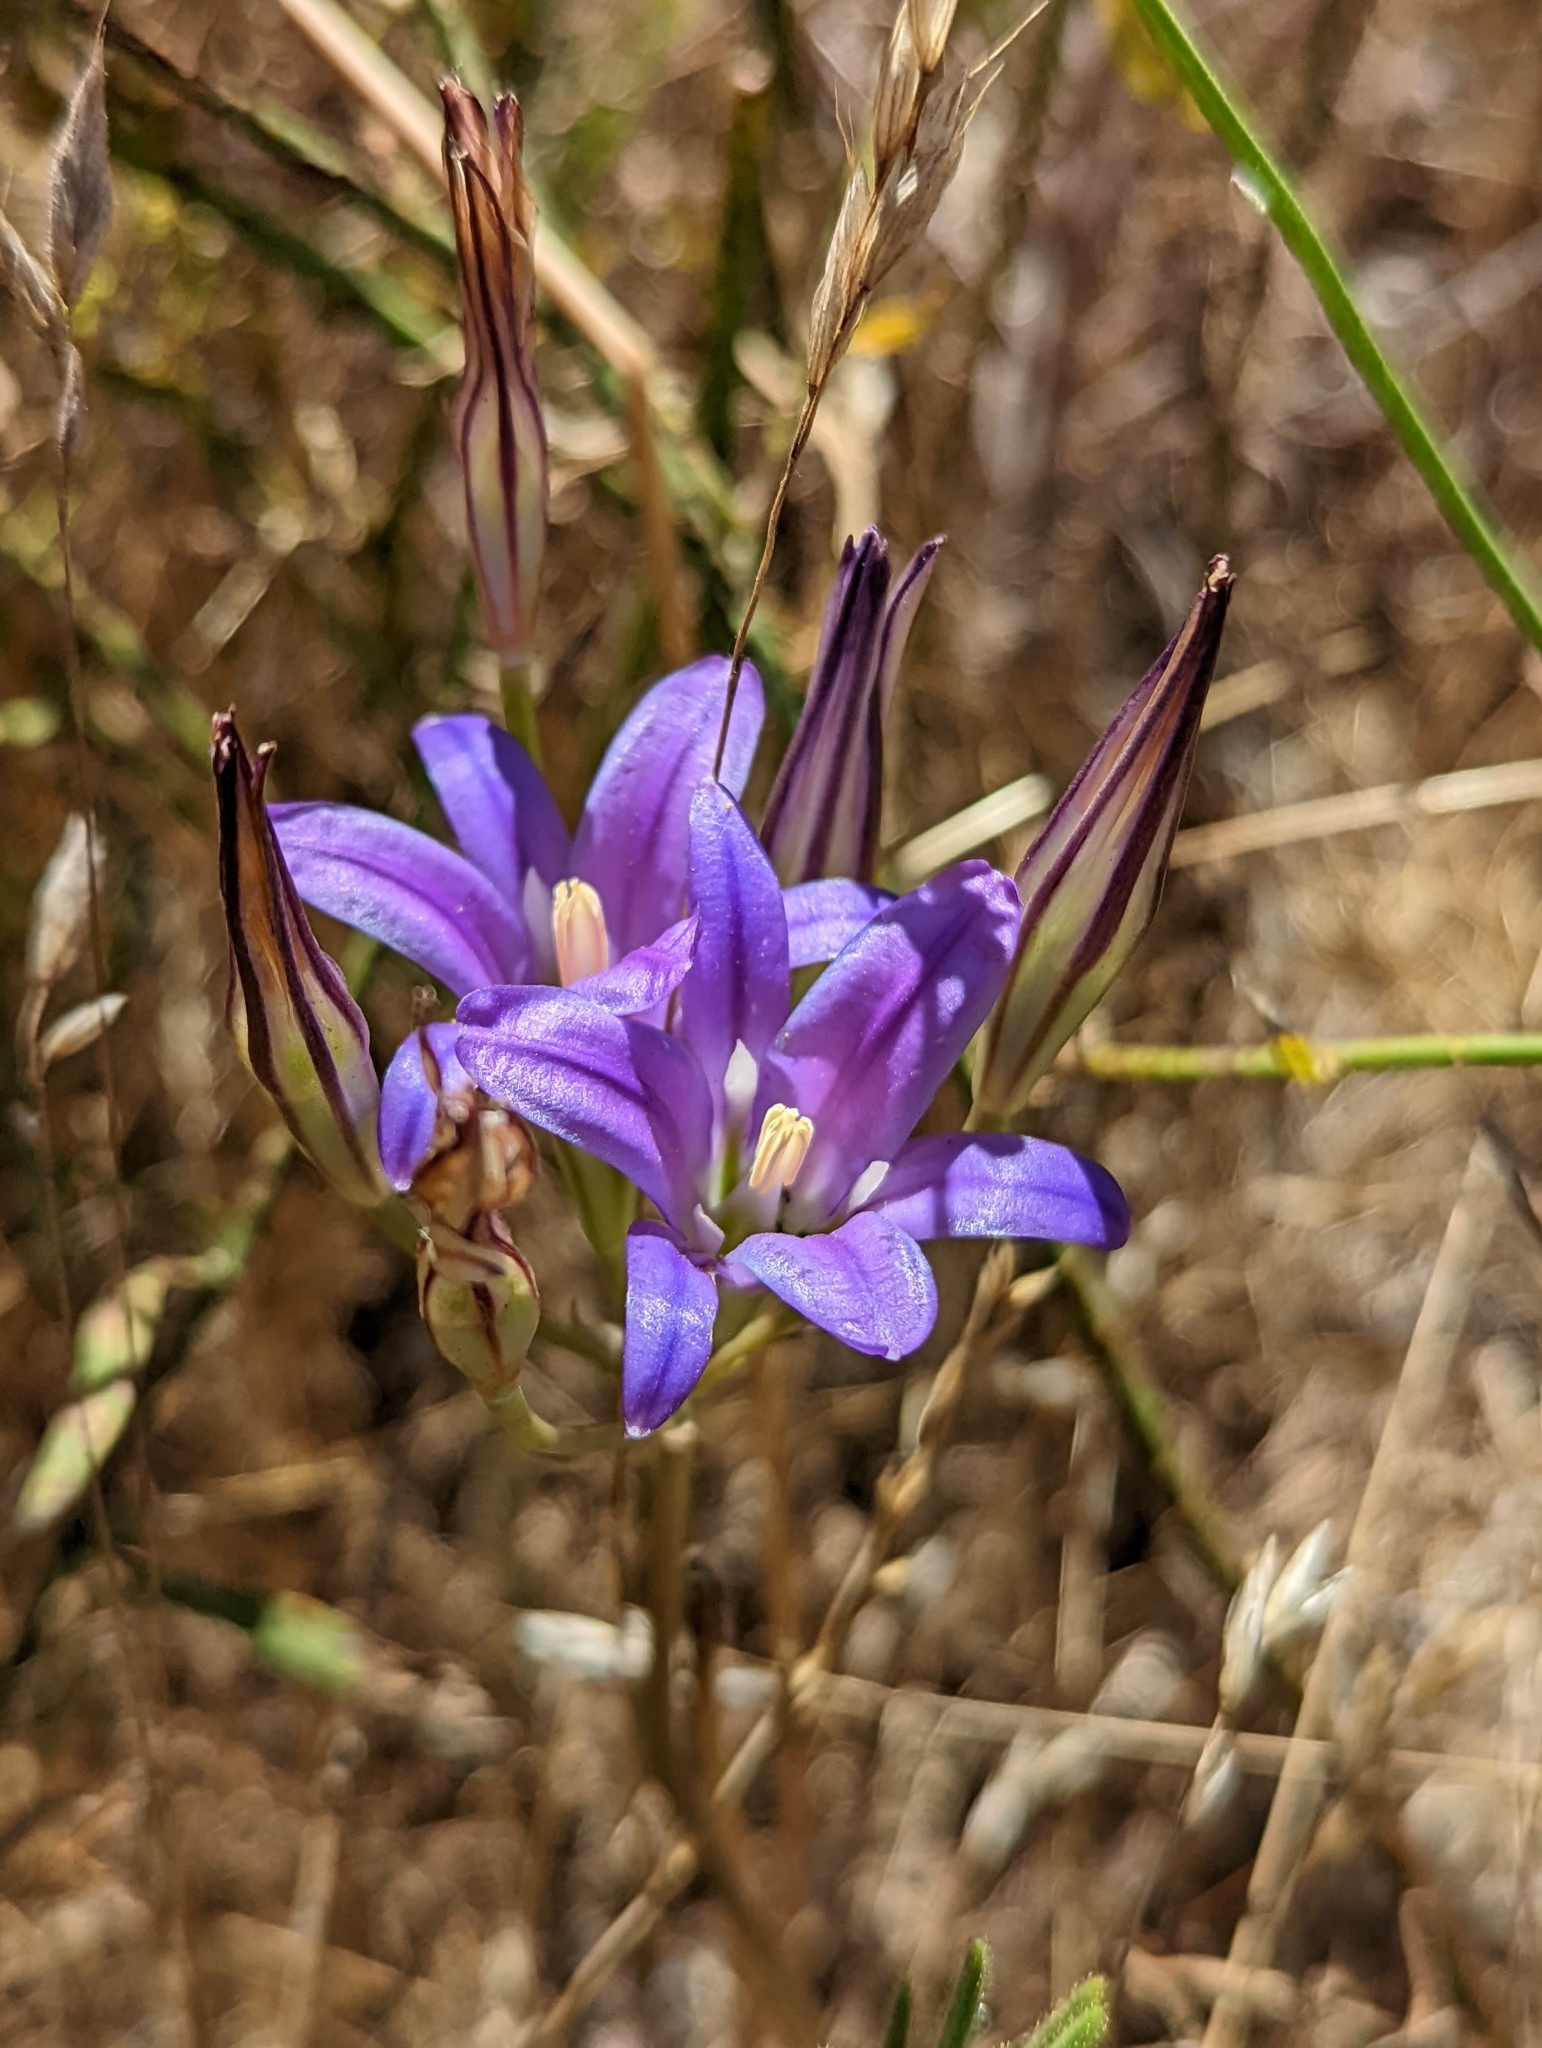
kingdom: Plantae
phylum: Tracheophyta
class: Liliopsida
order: Asparagales
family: Asparagaceae
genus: Brodiaea
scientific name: Brodiaea elegans
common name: Elegant cluster-lily
